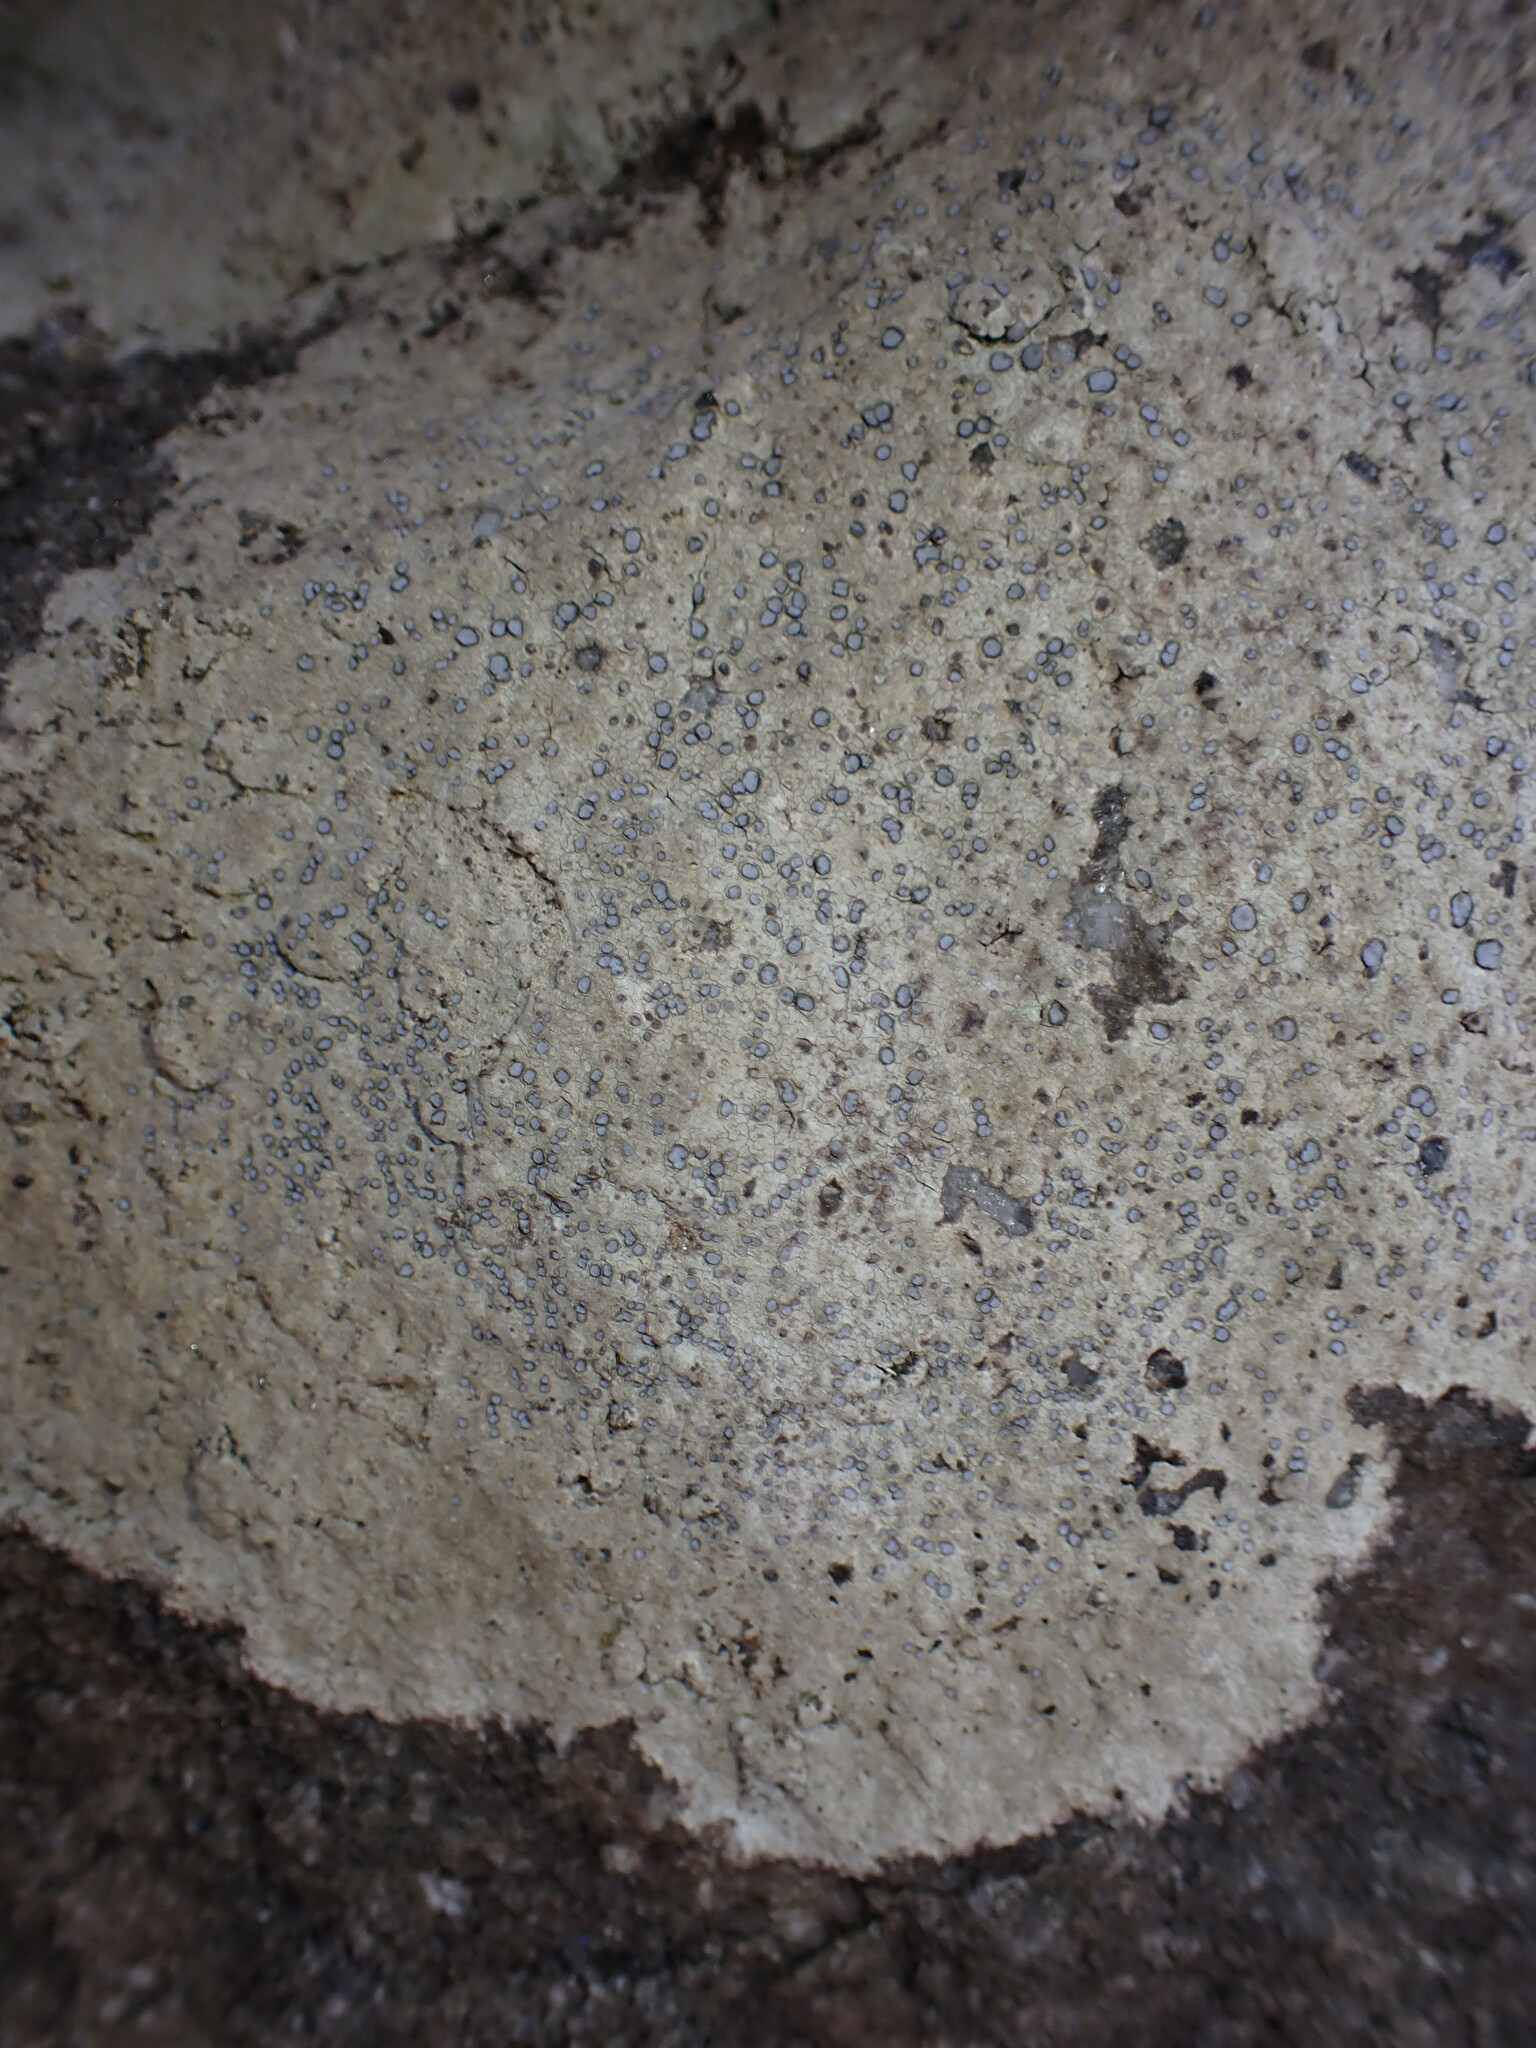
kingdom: Fungi
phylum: Ascomycota
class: Lecanoromycetes
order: Lecideales
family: Lecideaceae
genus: Porpidia
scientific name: Porpidia albocaerulescens
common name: Smokey-eyed boulder lichen
